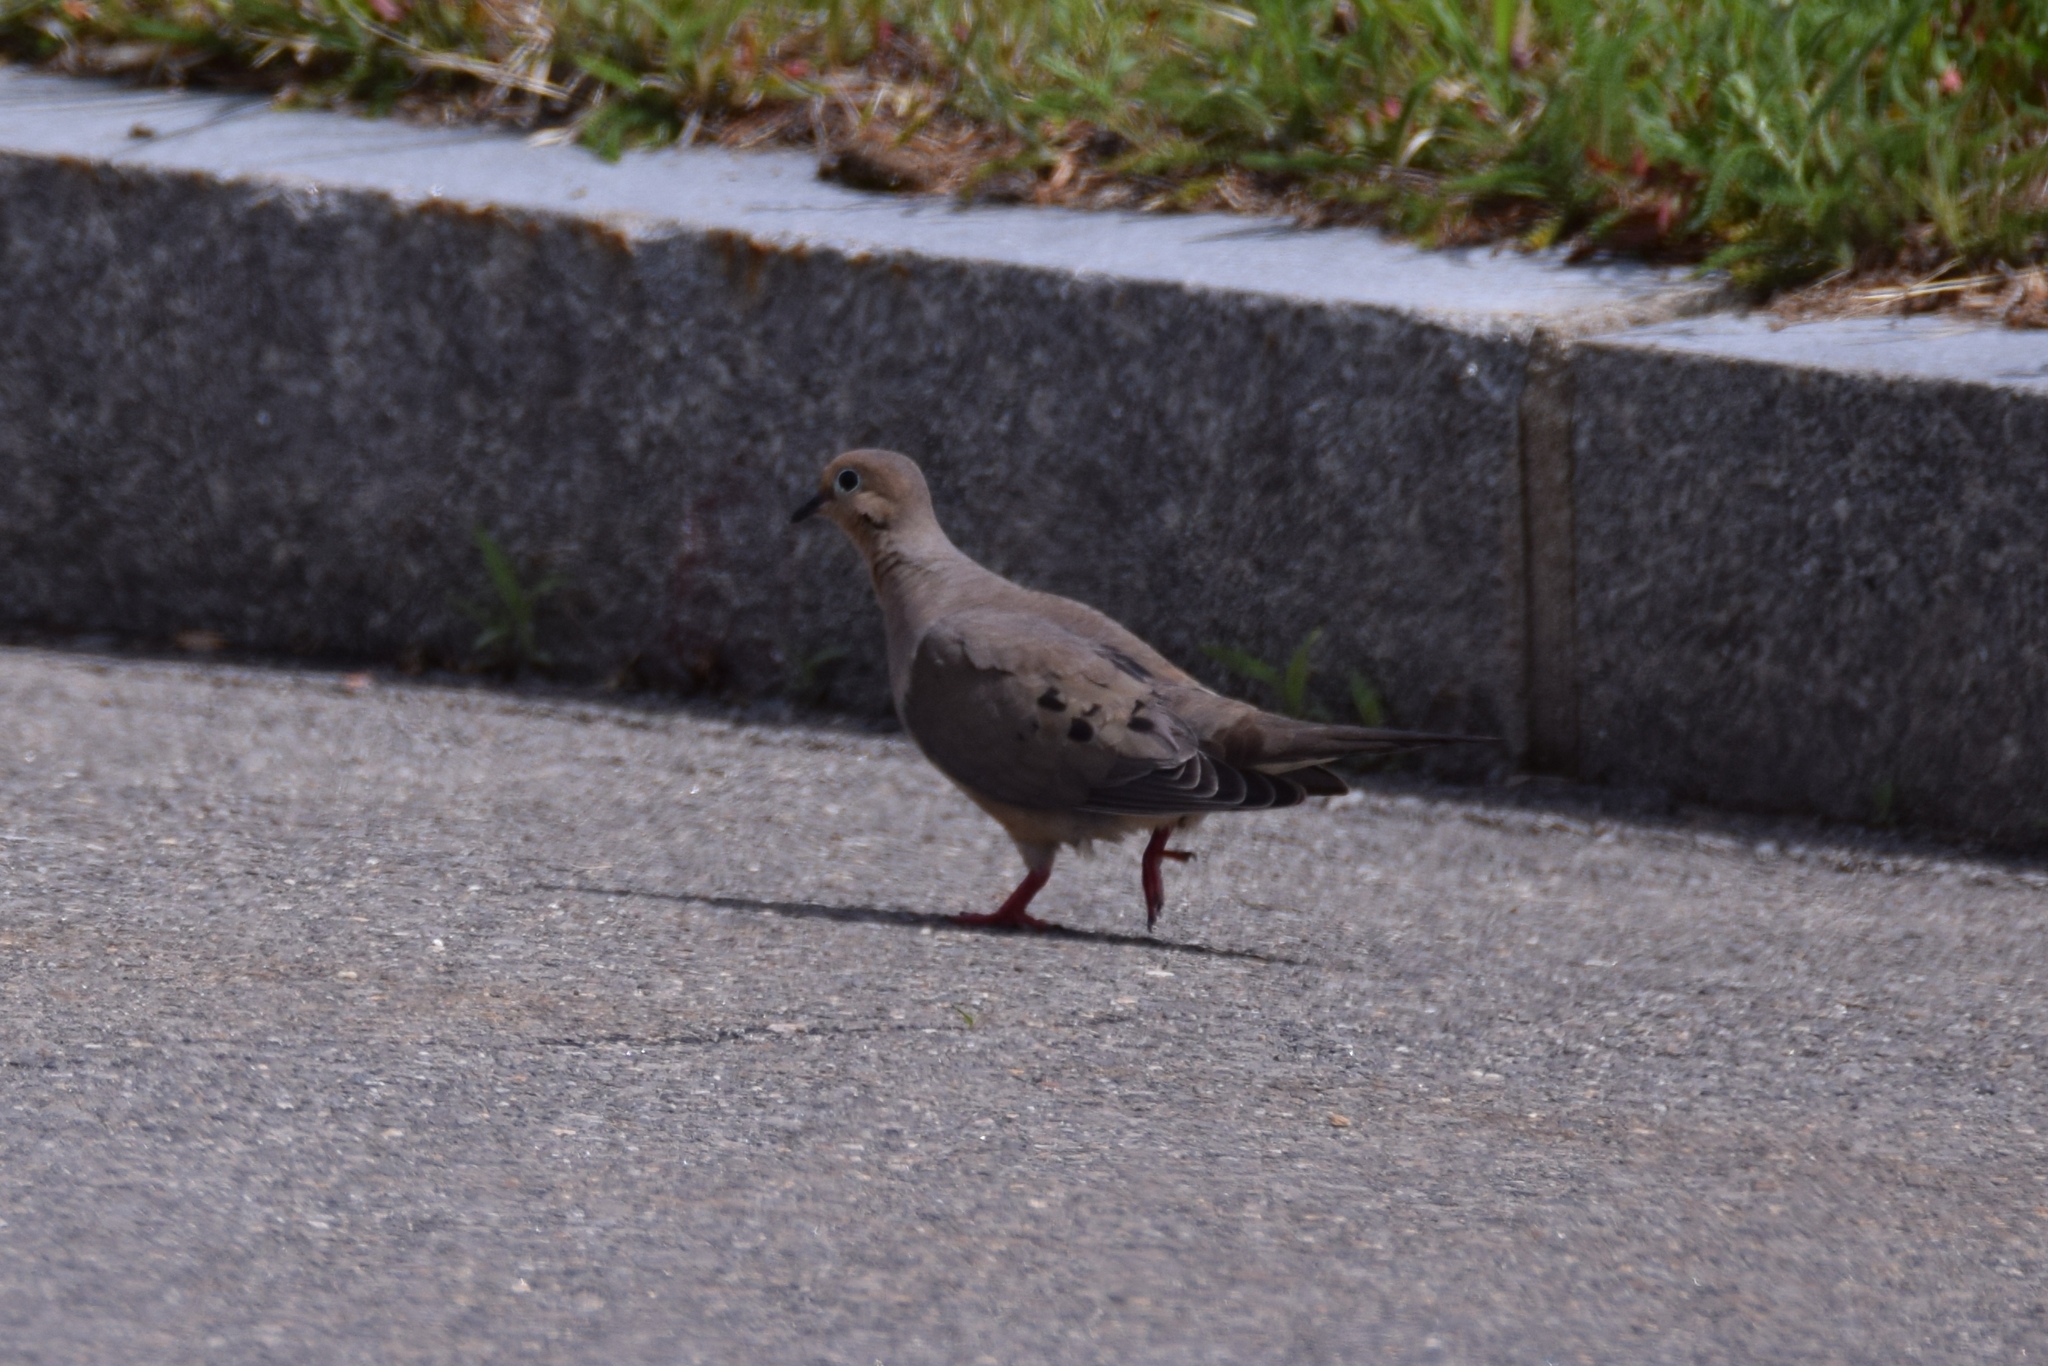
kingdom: Animalia
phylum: Chordata
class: Aves
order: Columbiformes
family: Columbidae
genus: Zenaida
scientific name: Zenaida macroura
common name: Mourning dove
